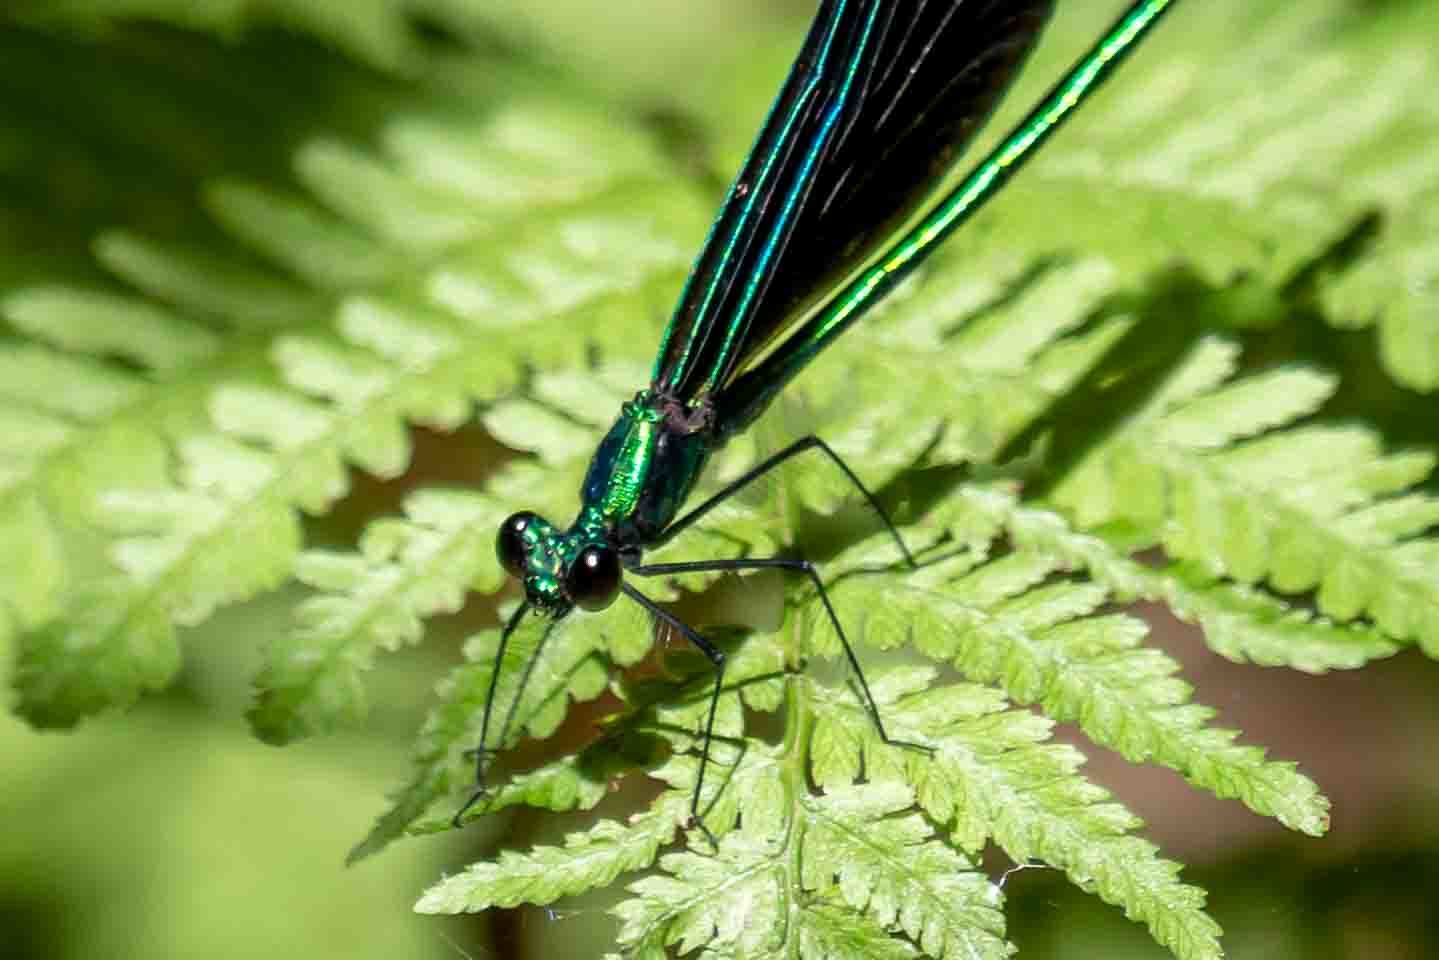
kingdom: Animalia
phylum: Arthropoda
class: Insecta
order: Odonata
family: Calopterygidae
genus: Calopteryx
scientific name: Calopteryx maculata
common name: Ebony jewelwing
